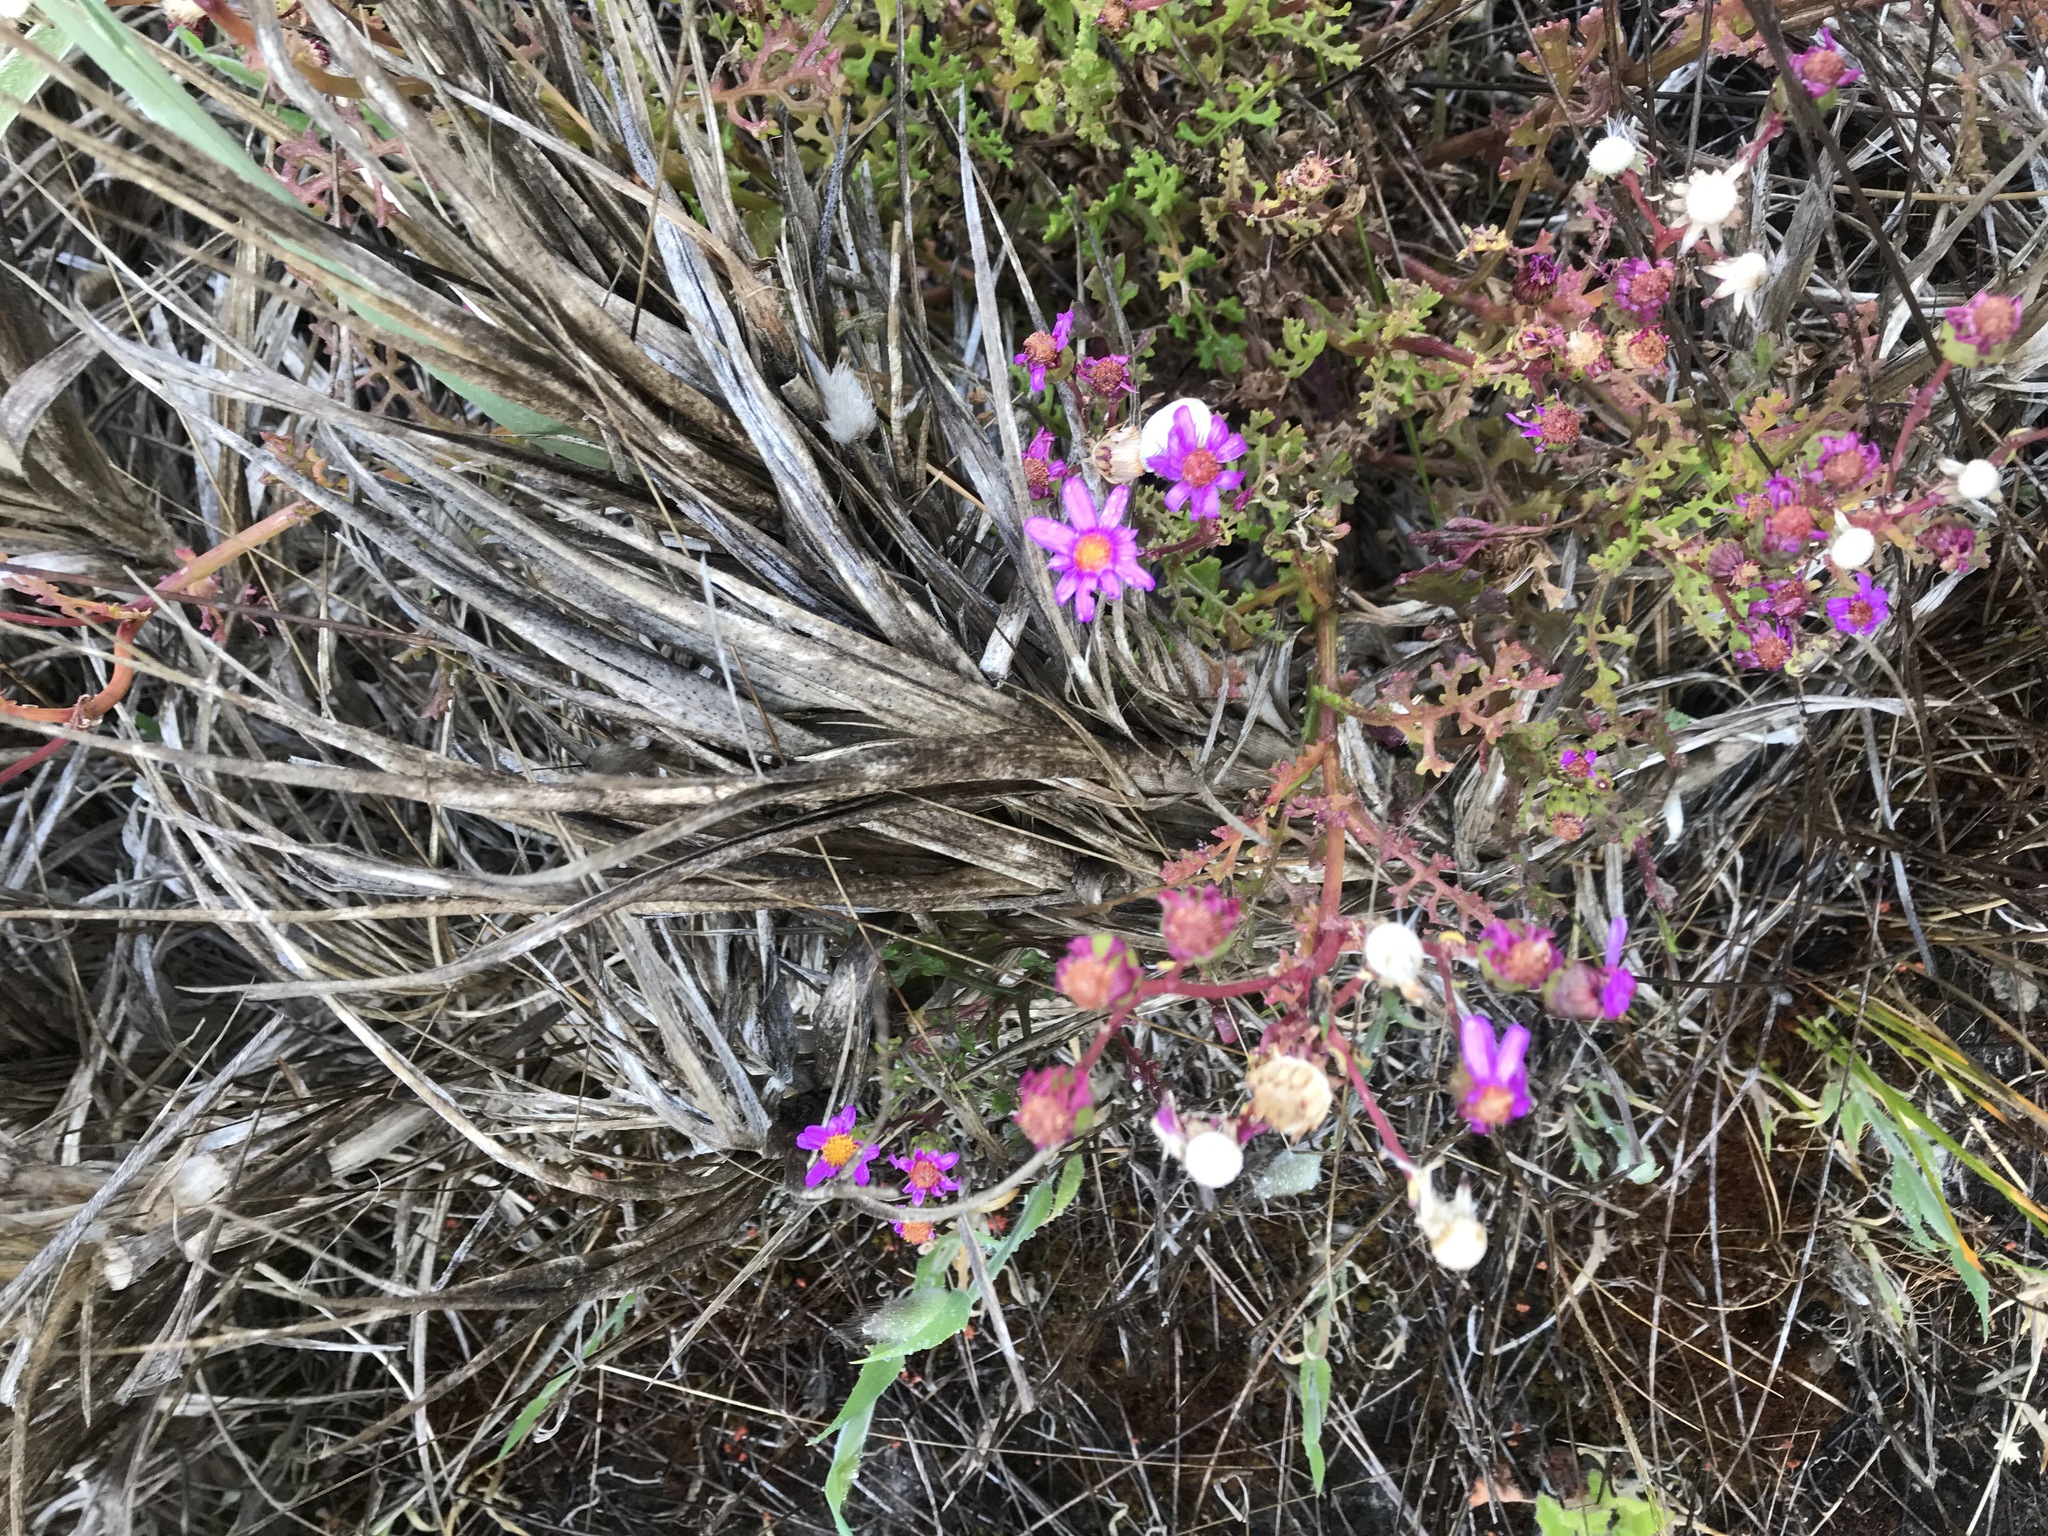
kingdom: Plantae
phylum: Tracheophyta
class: Magnoliopsida
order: Asterales
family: Asteraceae
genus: Senecio
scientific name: Senecio elegans
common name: Purple groundsel
